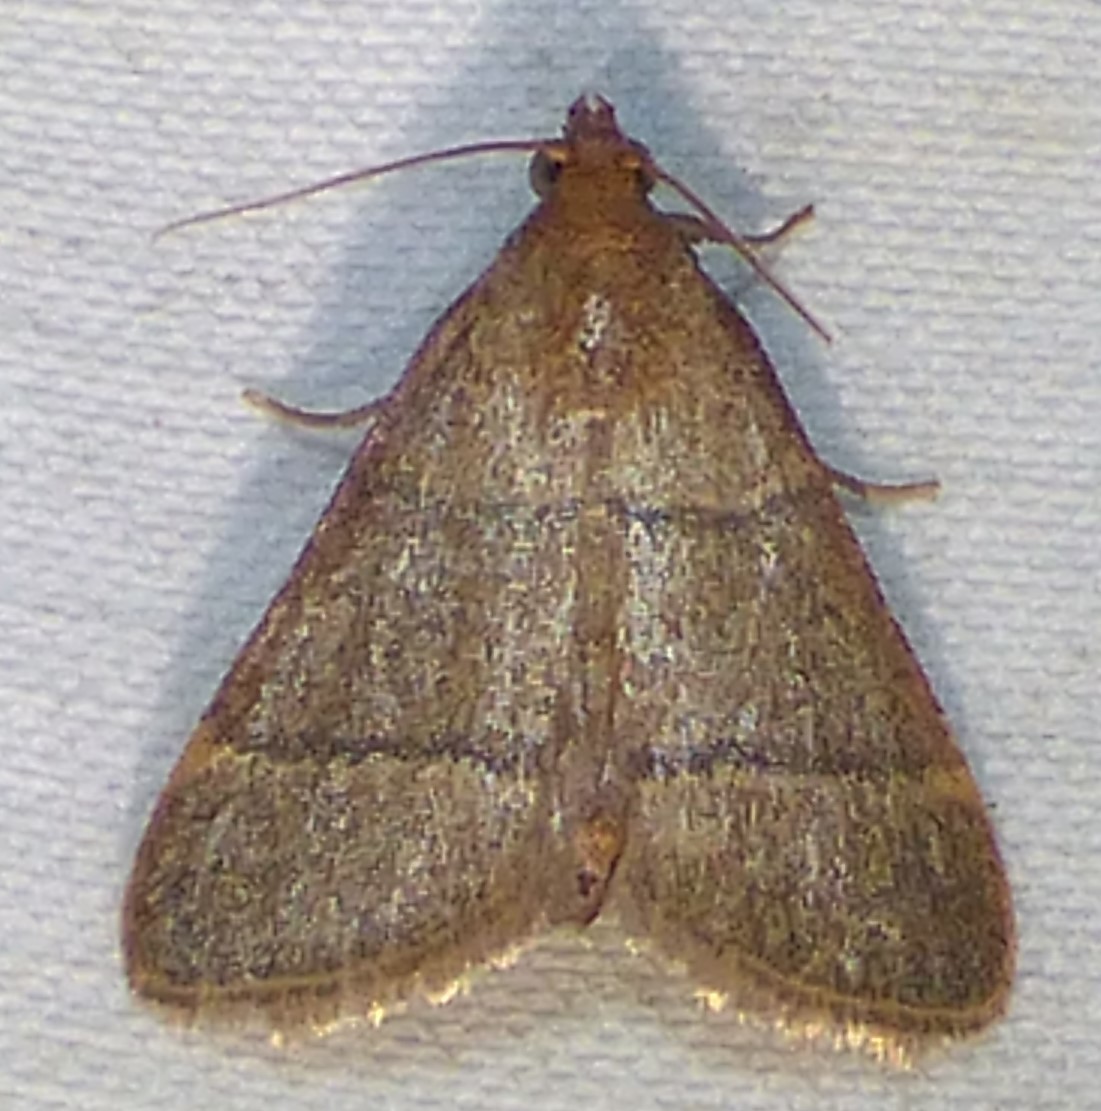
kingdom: Animalia
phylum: Arthropoda
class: Insecta
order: Lepidoptera
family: Pyralidae
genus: Hypsopygia
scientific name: Hypsopygia nostralis
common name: Southern hayworm moth
